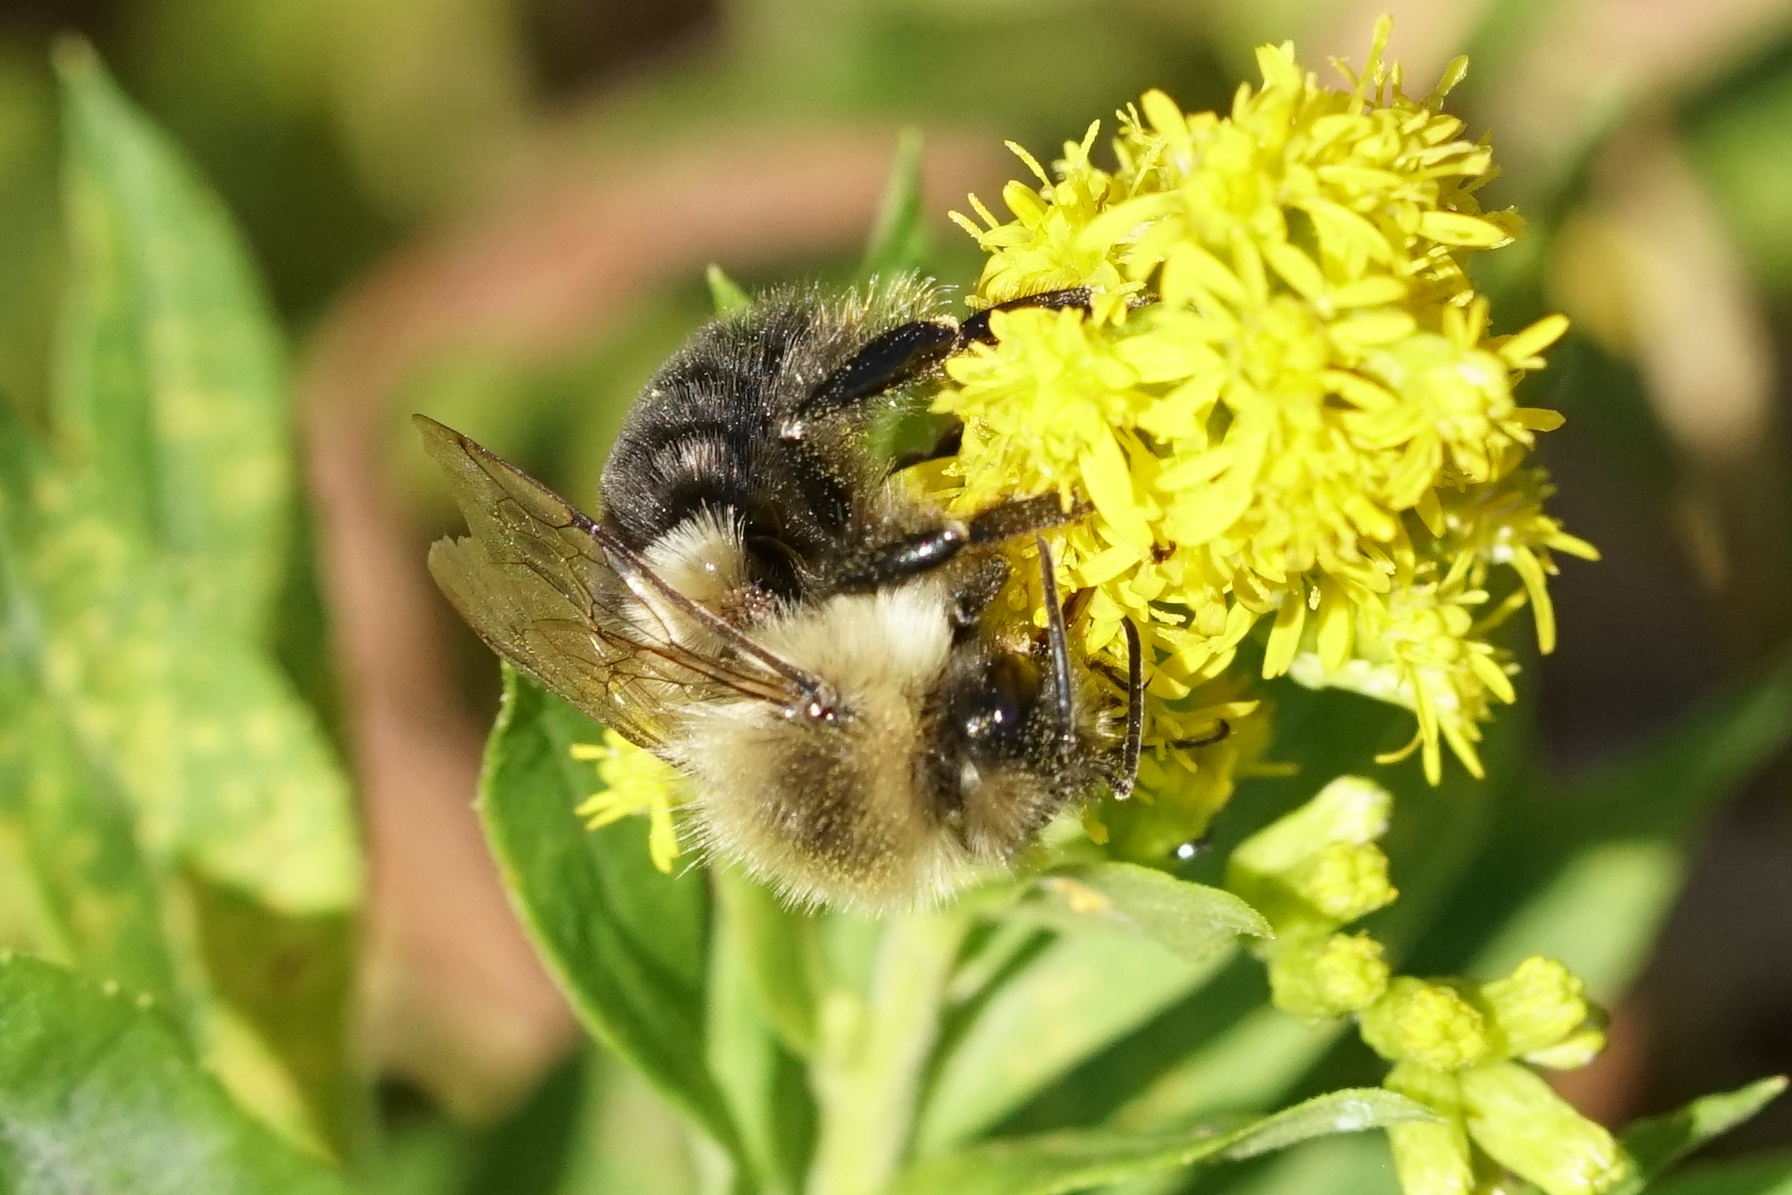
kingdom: Animalia
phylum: Arthropoda
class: Insecta
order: Hymenoptera
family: Apidae
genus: Bombus
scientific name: Bombus impatiens
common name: Common eastern bumble bee
